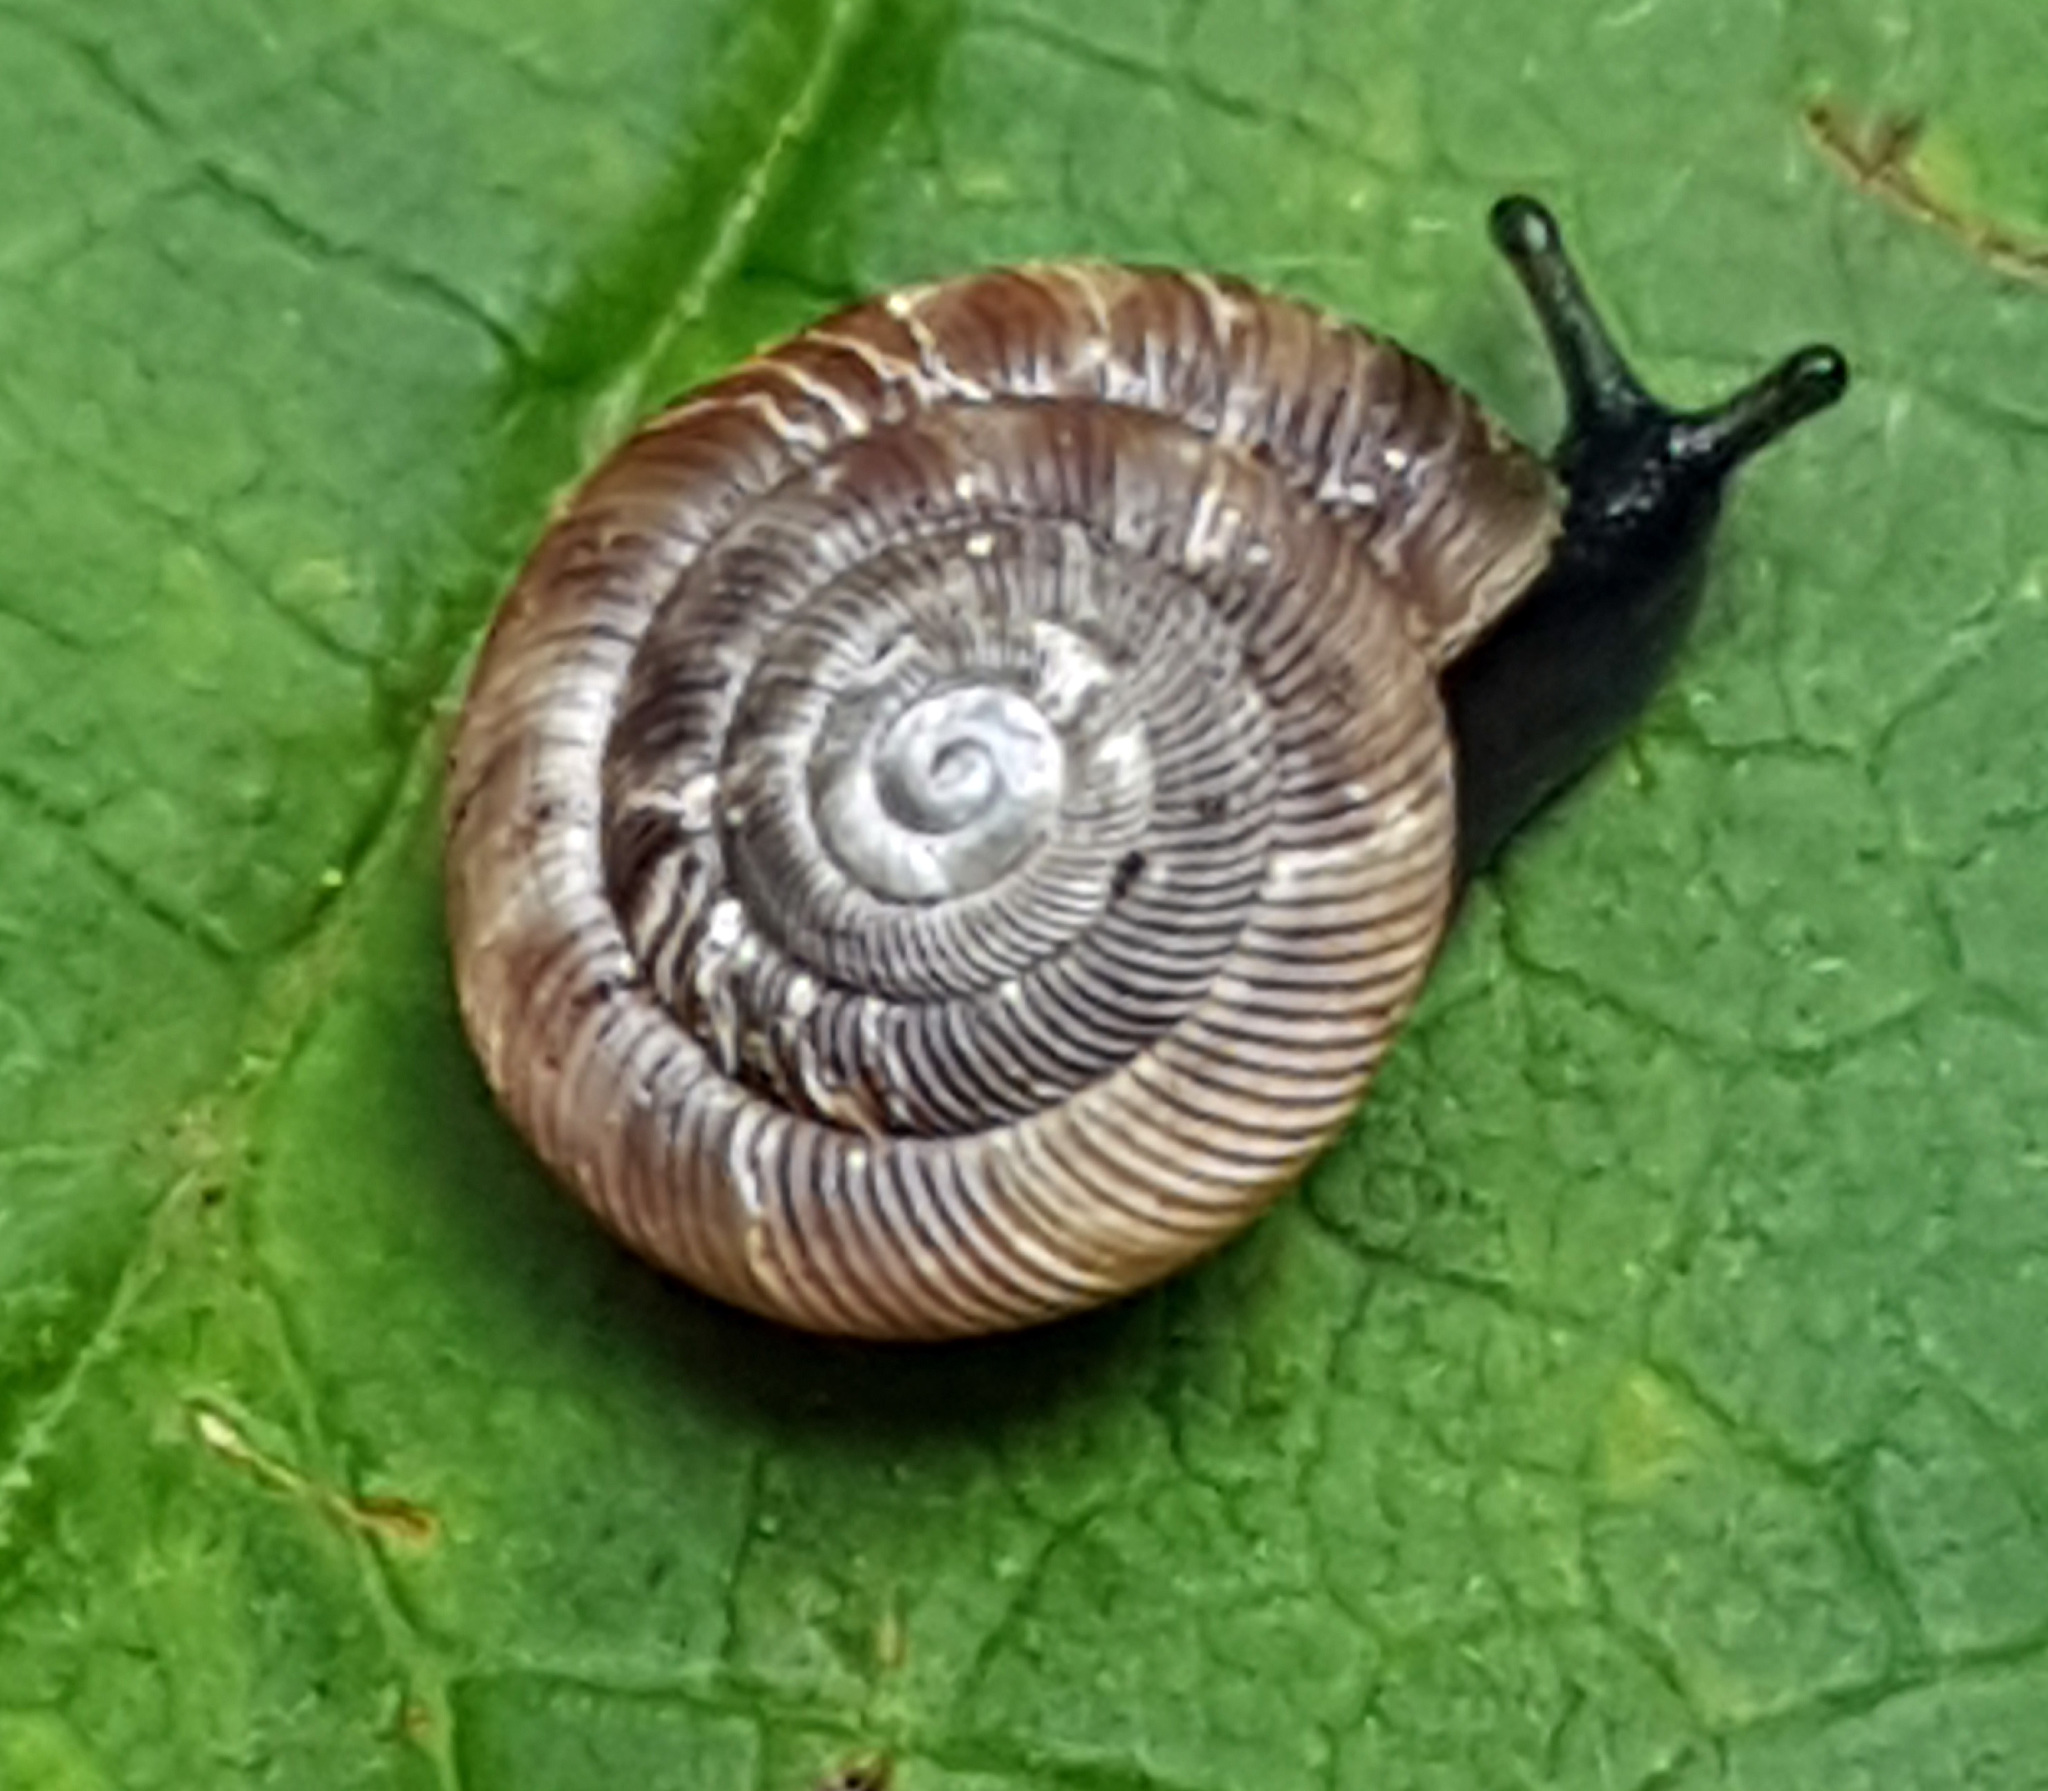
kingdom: Animalia
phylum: Mollusca
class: Gastropoda
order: Stylommatophora
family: Discidae
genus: Discus
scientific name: Discus rotundatus
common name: Rounded snail
